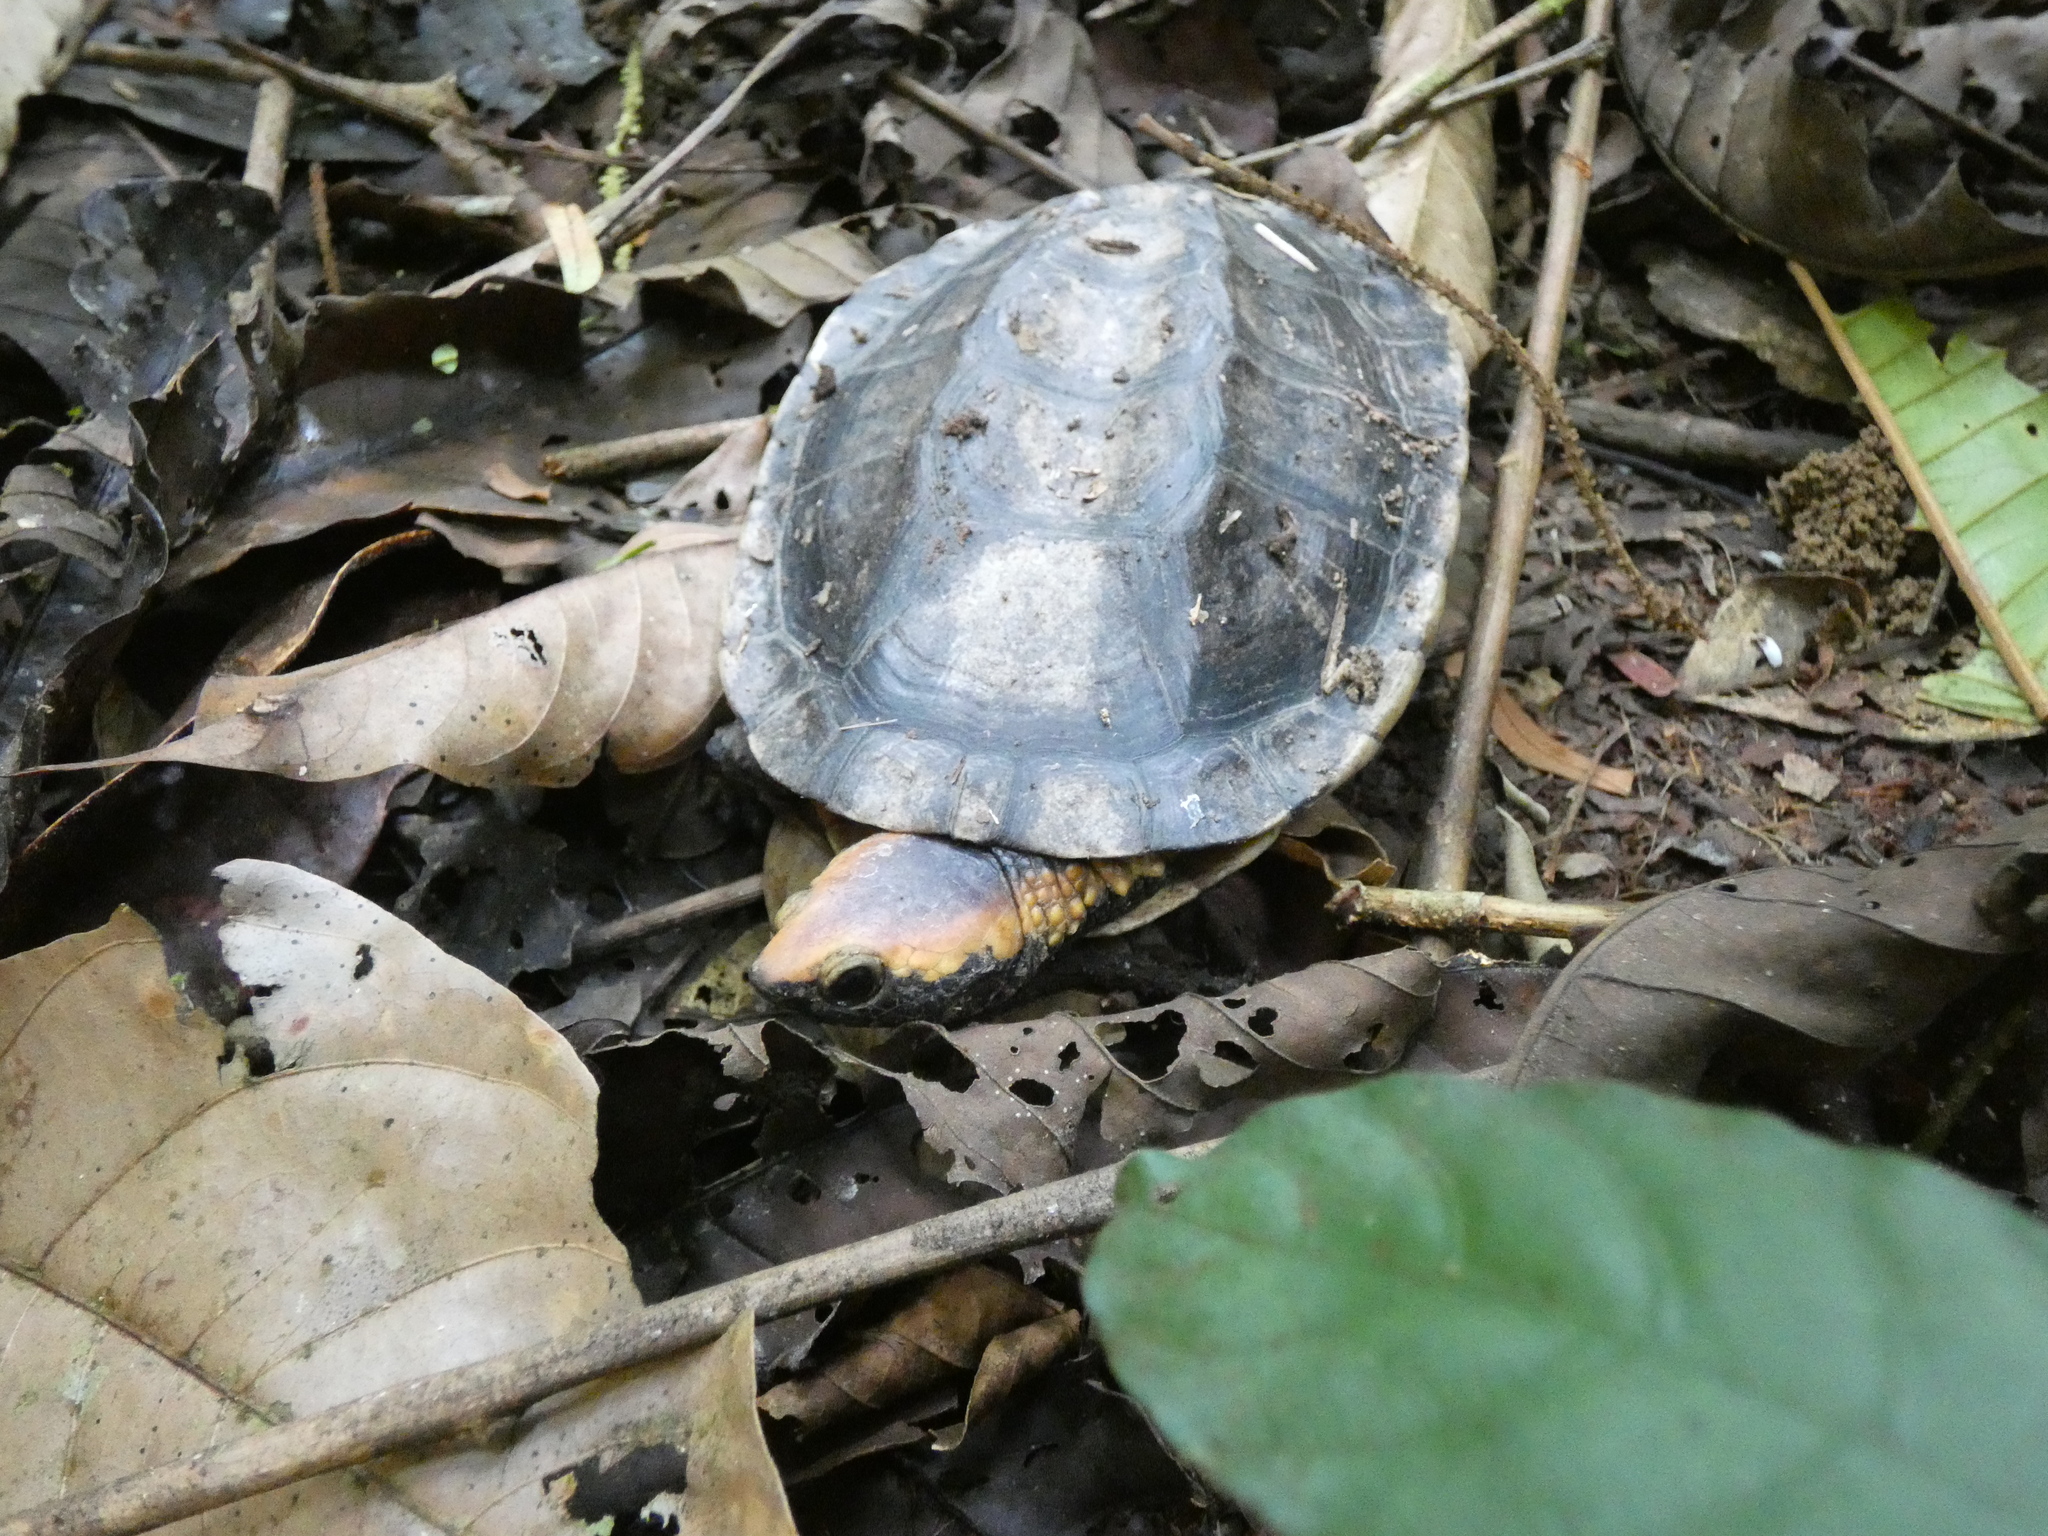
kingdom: Animalia
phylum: Chordata
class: Testudines
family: Chelidae
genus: Platemys
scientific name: Platemys platycephala
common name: Twistneck turtle
